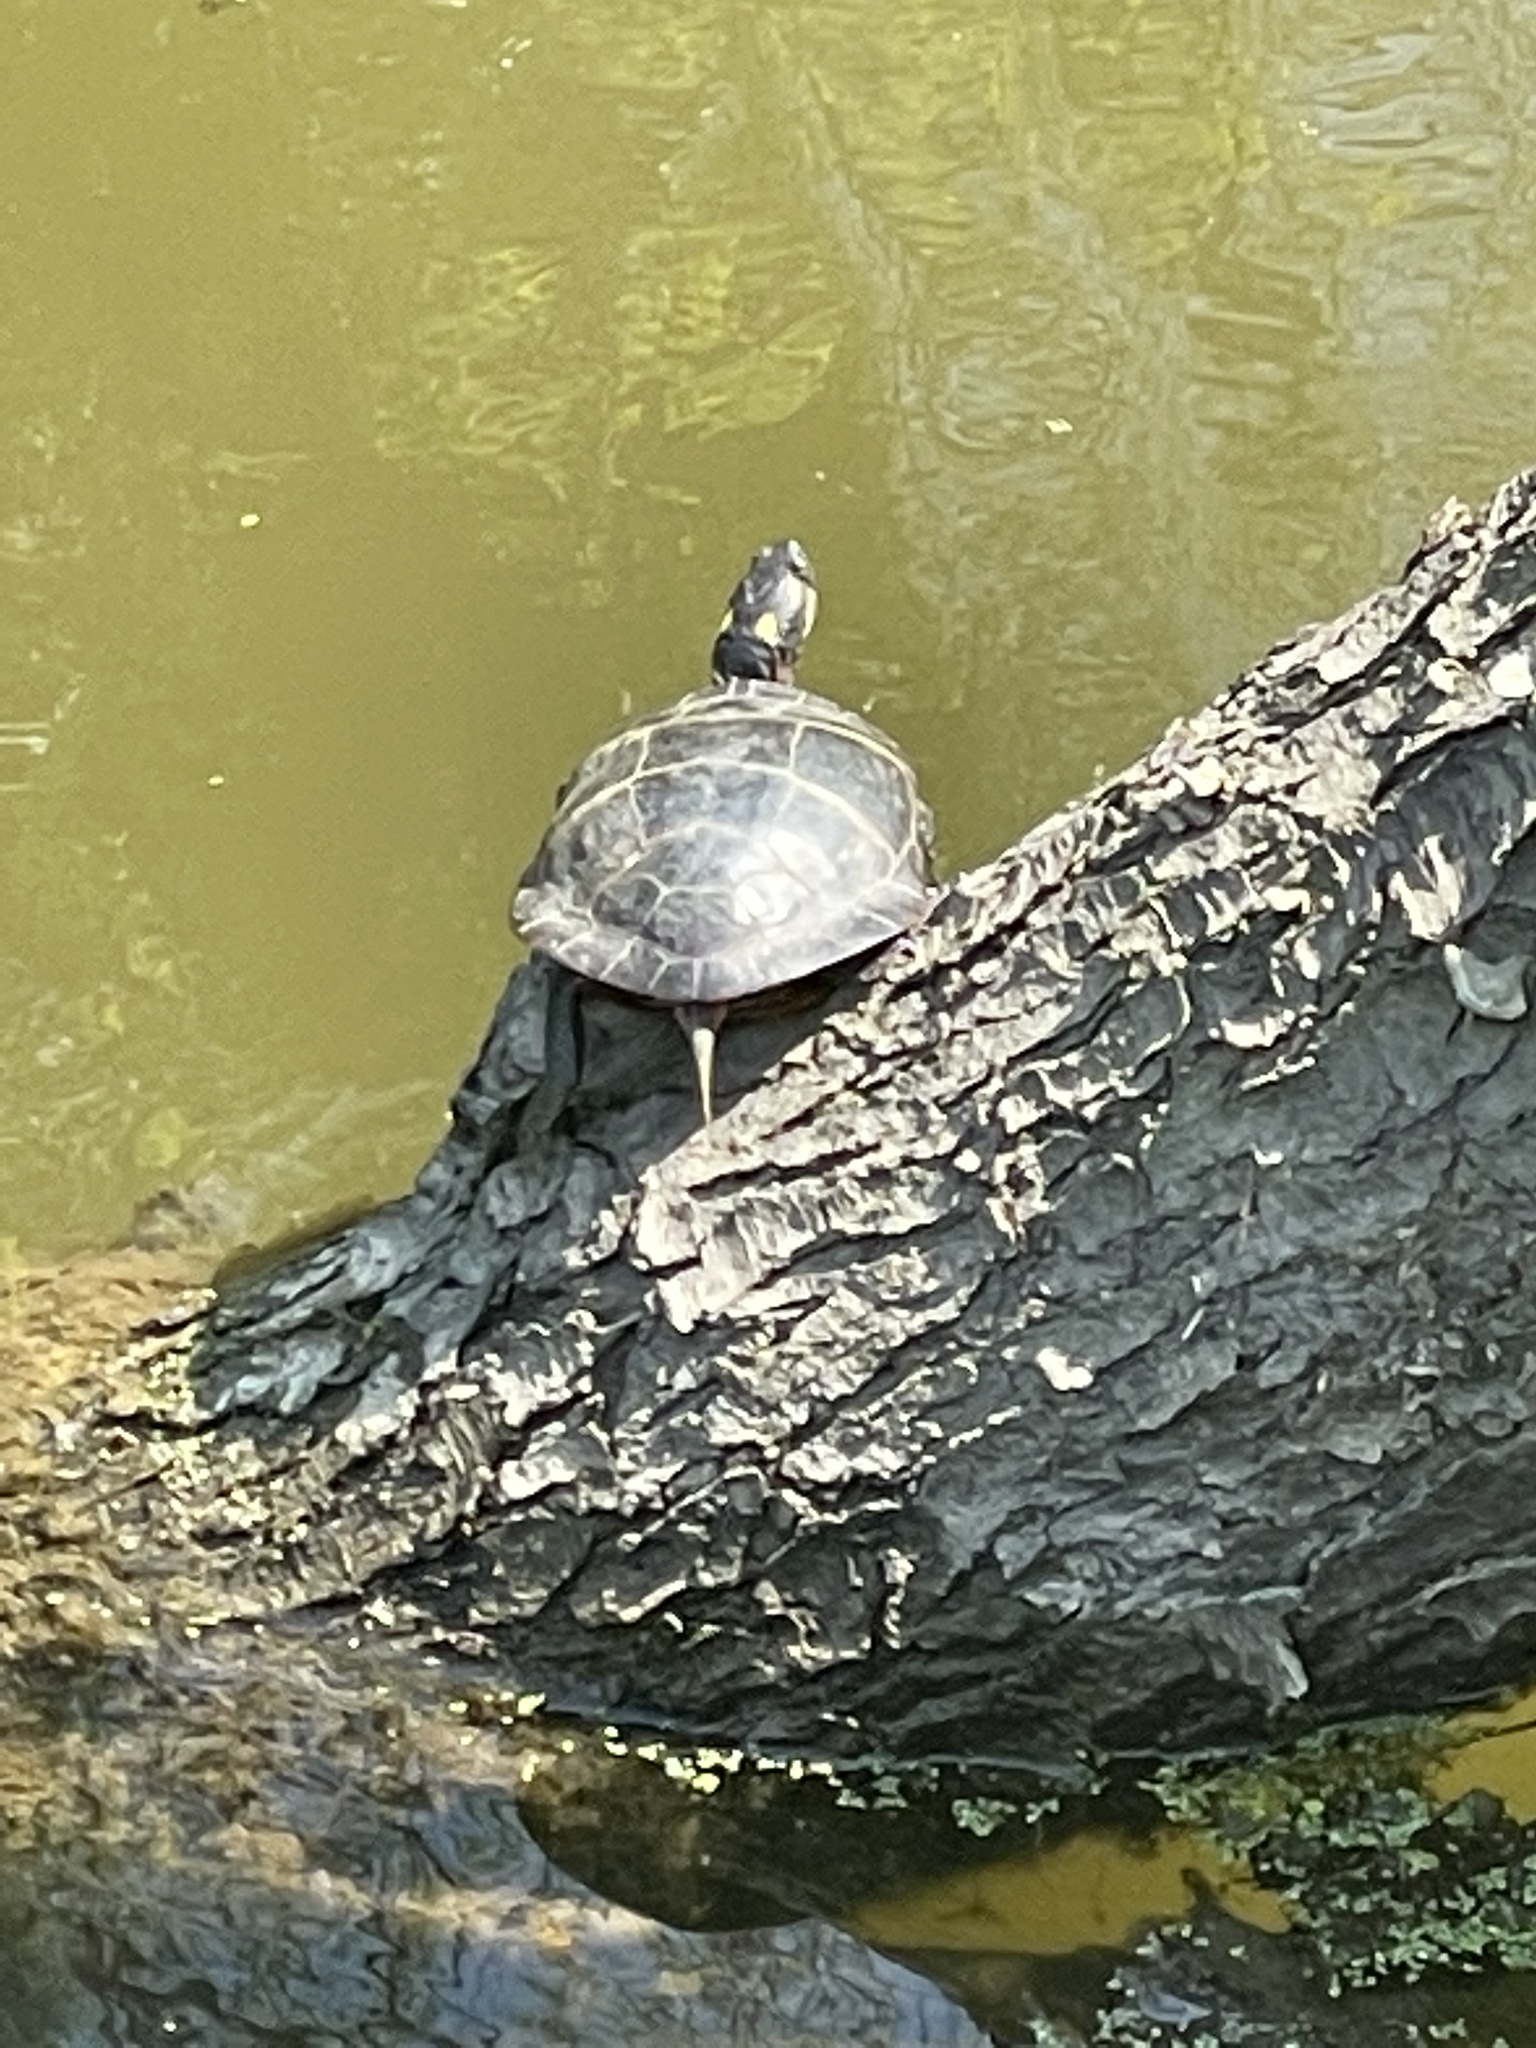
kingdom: Animalia
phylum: Chordata
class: Testudines
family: Emydidae
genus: Chrysemys
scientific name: Chrysemys picta
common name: Painted turtle
